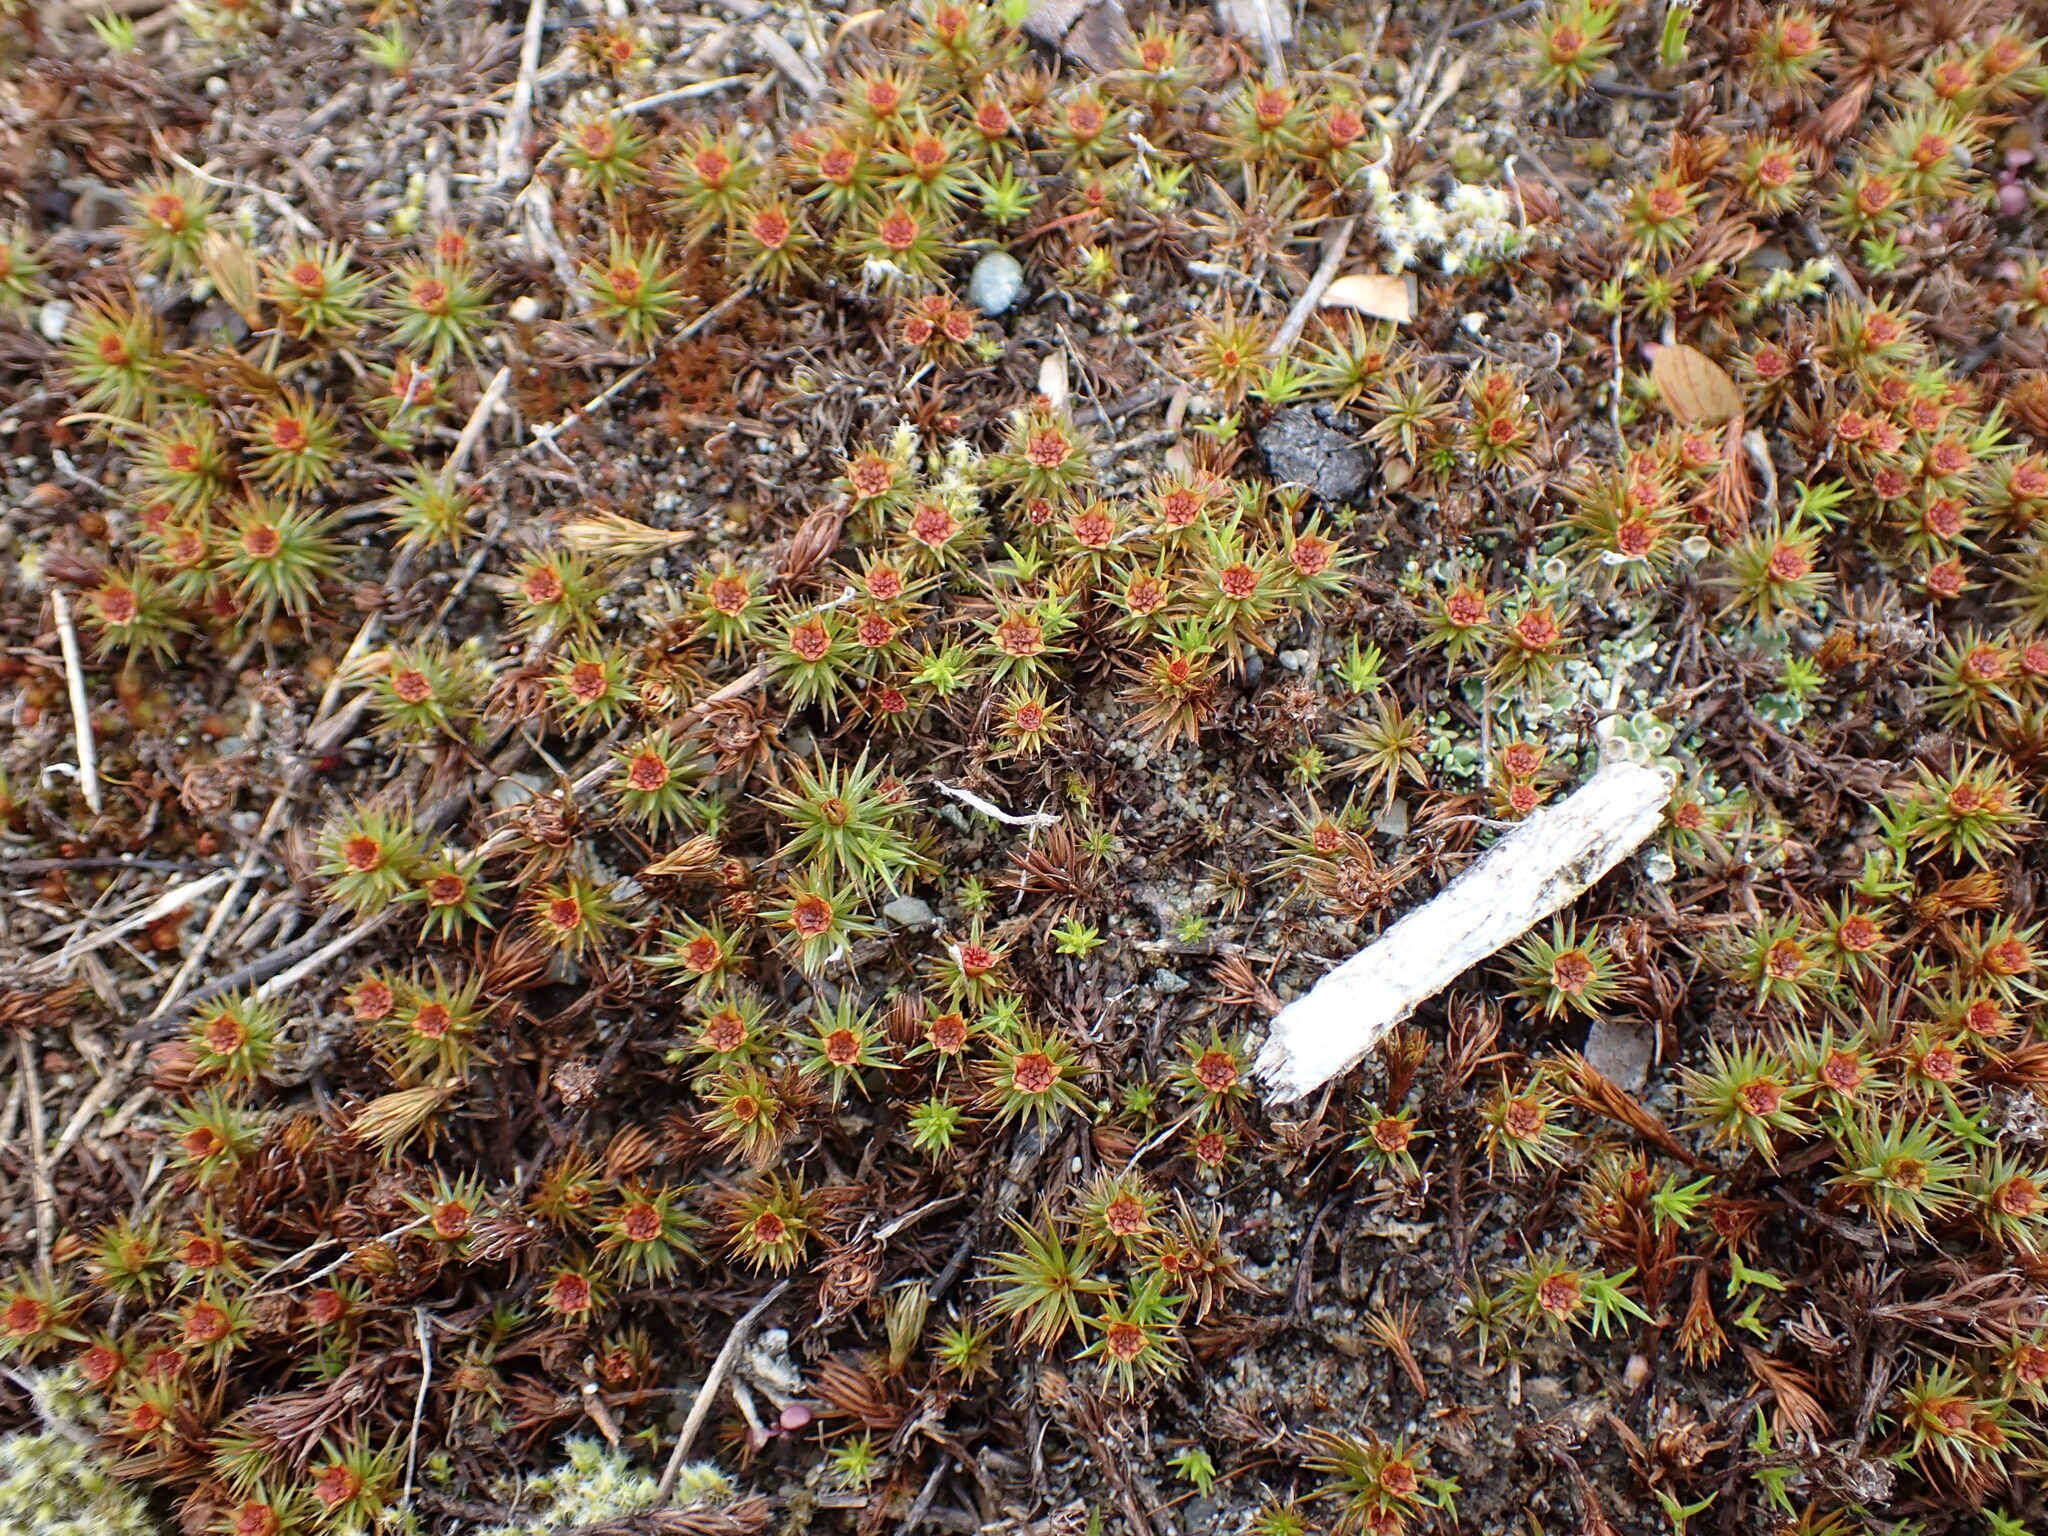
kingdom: Plantae
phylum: Bryophyta
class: Polytrichopsida
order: Polytrichales
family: Polytrichaceae
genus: Polytrichum
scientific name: Polytrichum juniperinum
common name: Juniper haircap moss
